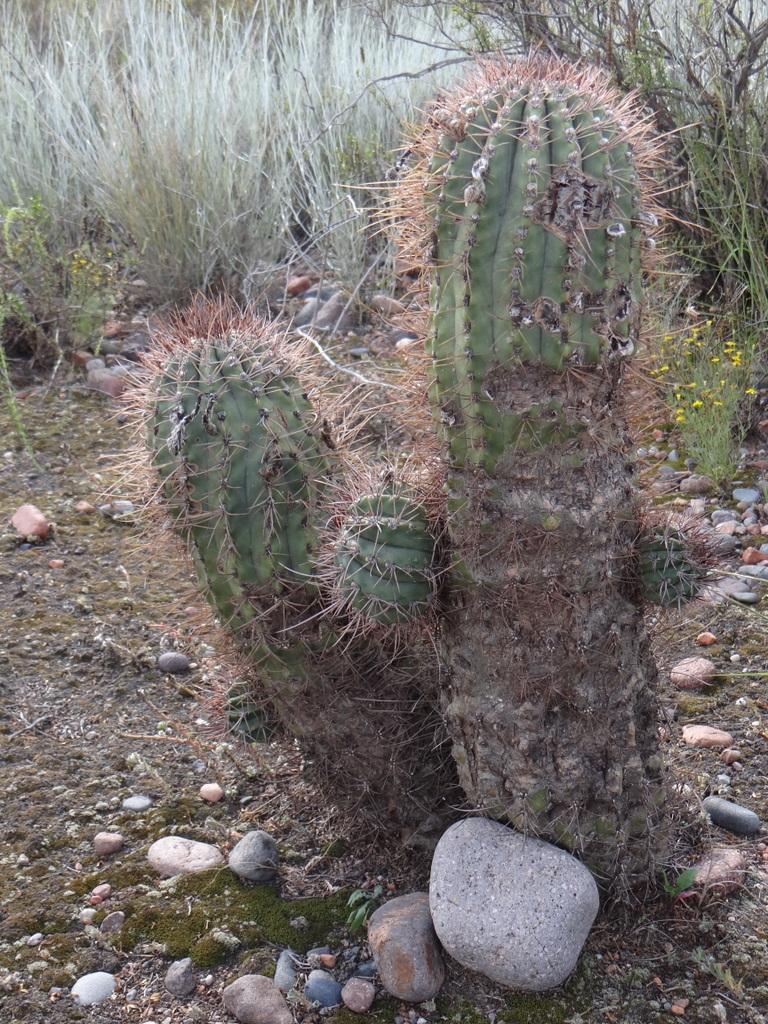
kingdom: Plantae
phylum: Tracheophyta
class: Magnoliopsida
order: Caryophyllales
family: Cactaceae
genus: Acanthocalycium
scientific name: Acanthocalycium leucanthum
